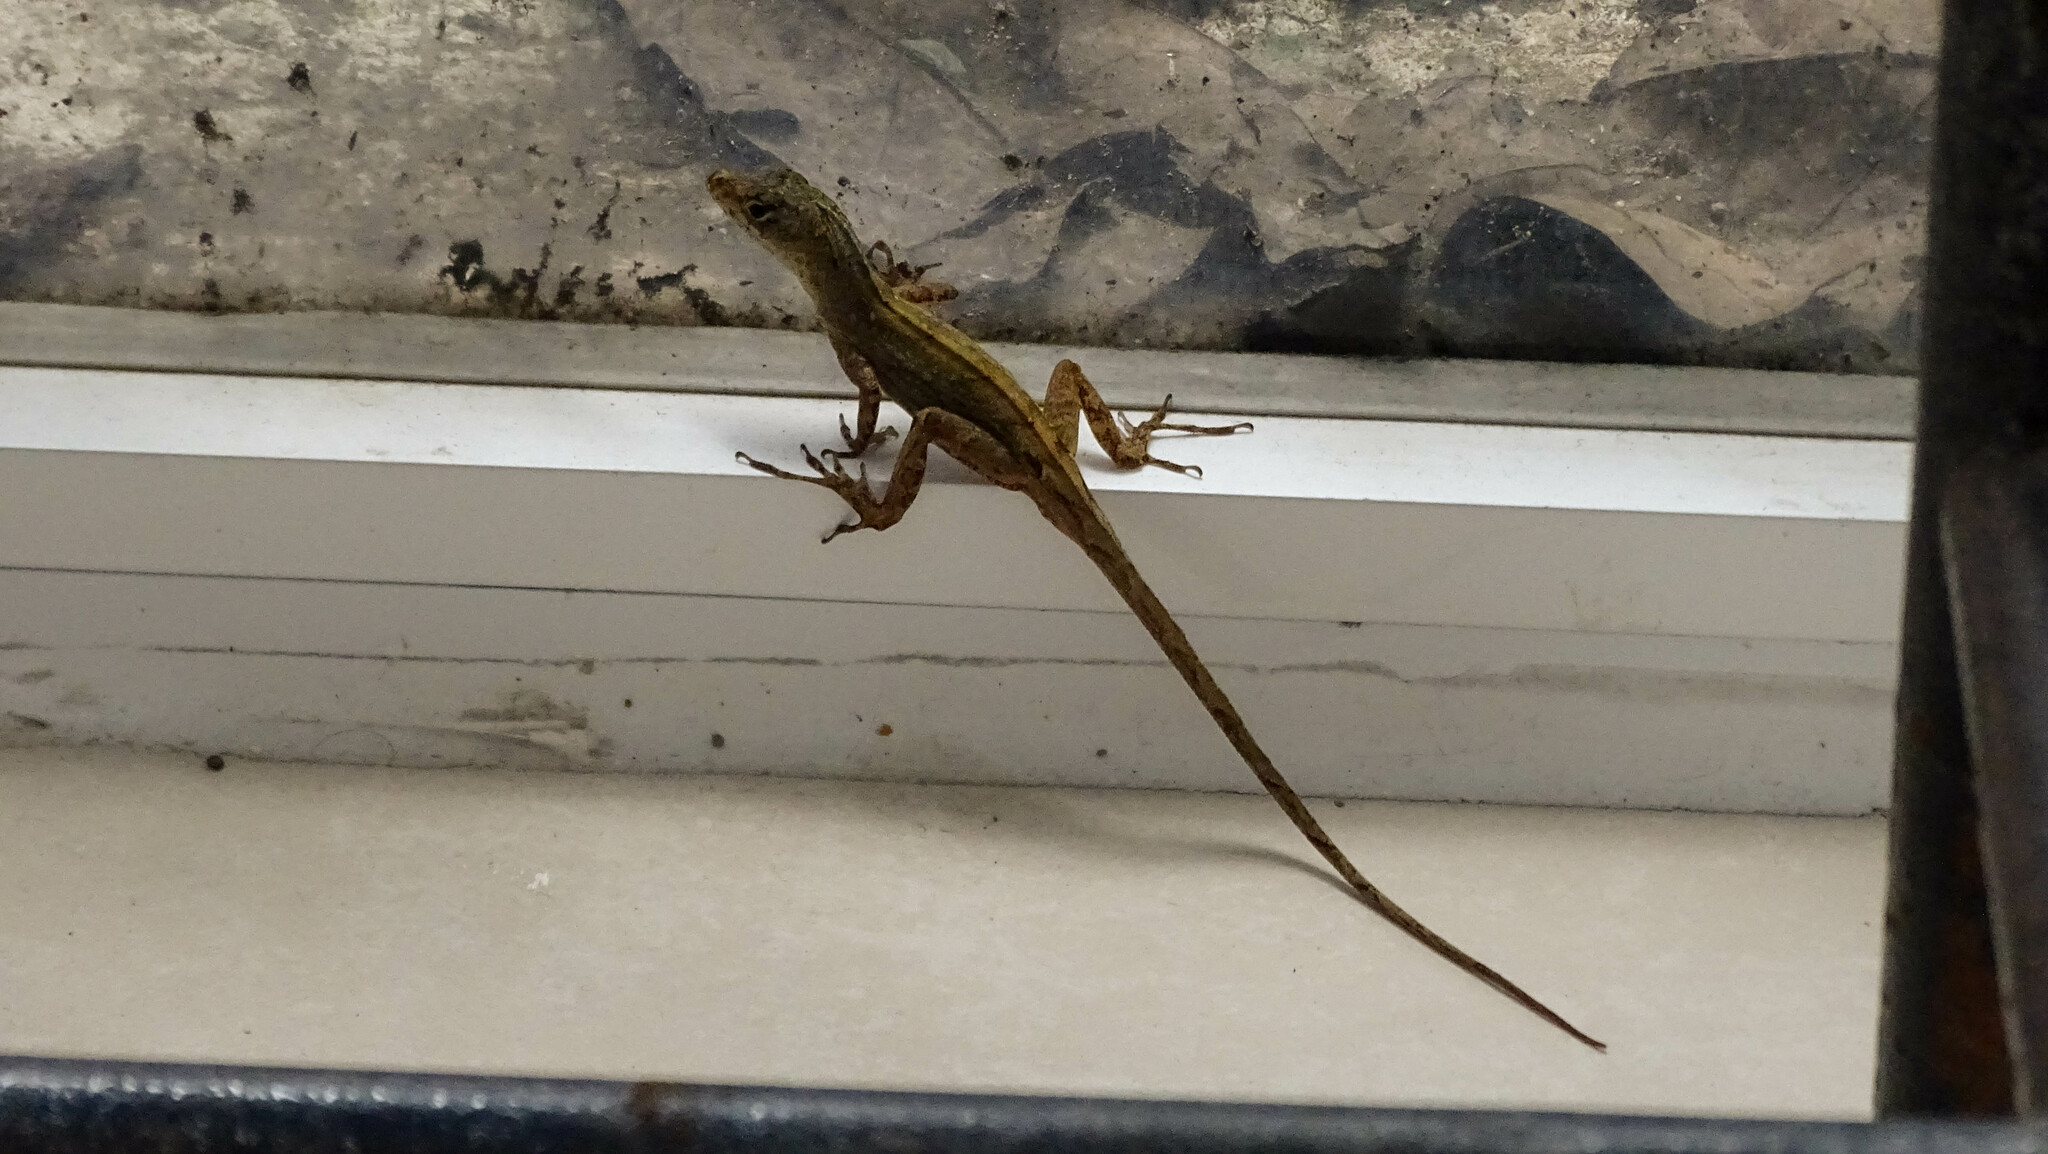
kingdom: Animalia
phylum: Chordata
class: Squamata
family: Dactyloidae
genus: Anolis
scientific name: Anolis sagrei
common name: Brown anole
